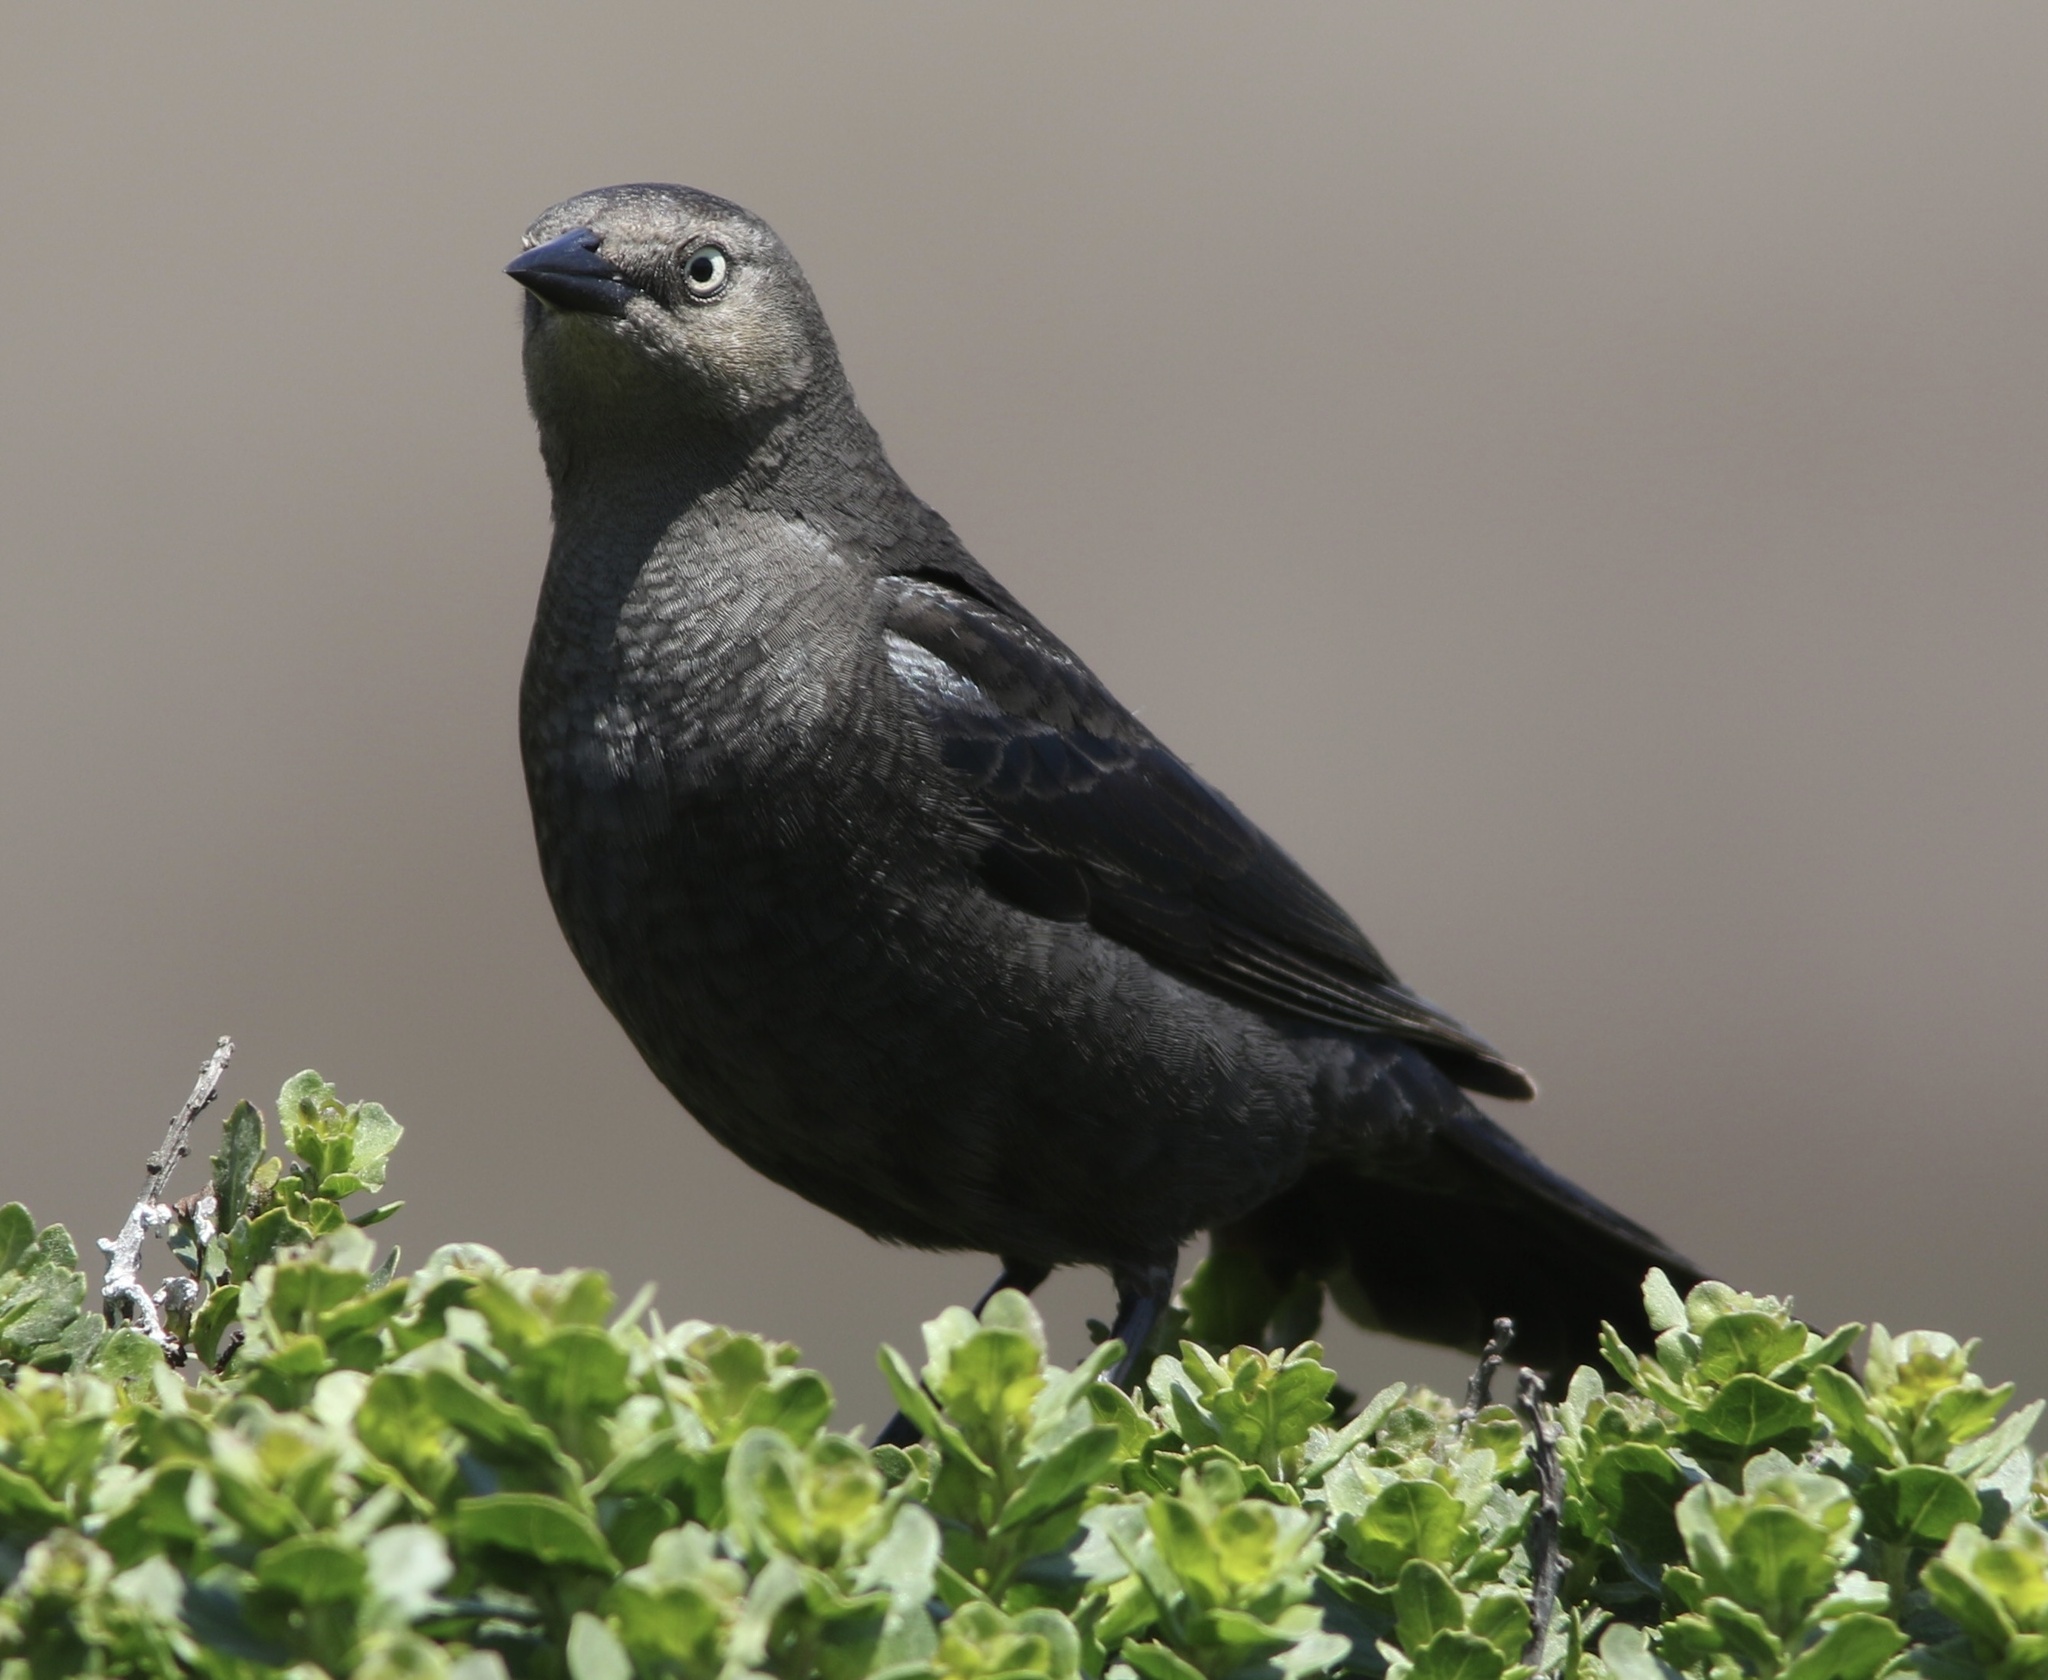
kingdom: Animalia
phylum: Chordata
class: Aves
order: Passeriformes
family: Icteridae
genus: Euphagus
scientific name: Euphagus cyanocephalus
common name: Brewer's blackbird
